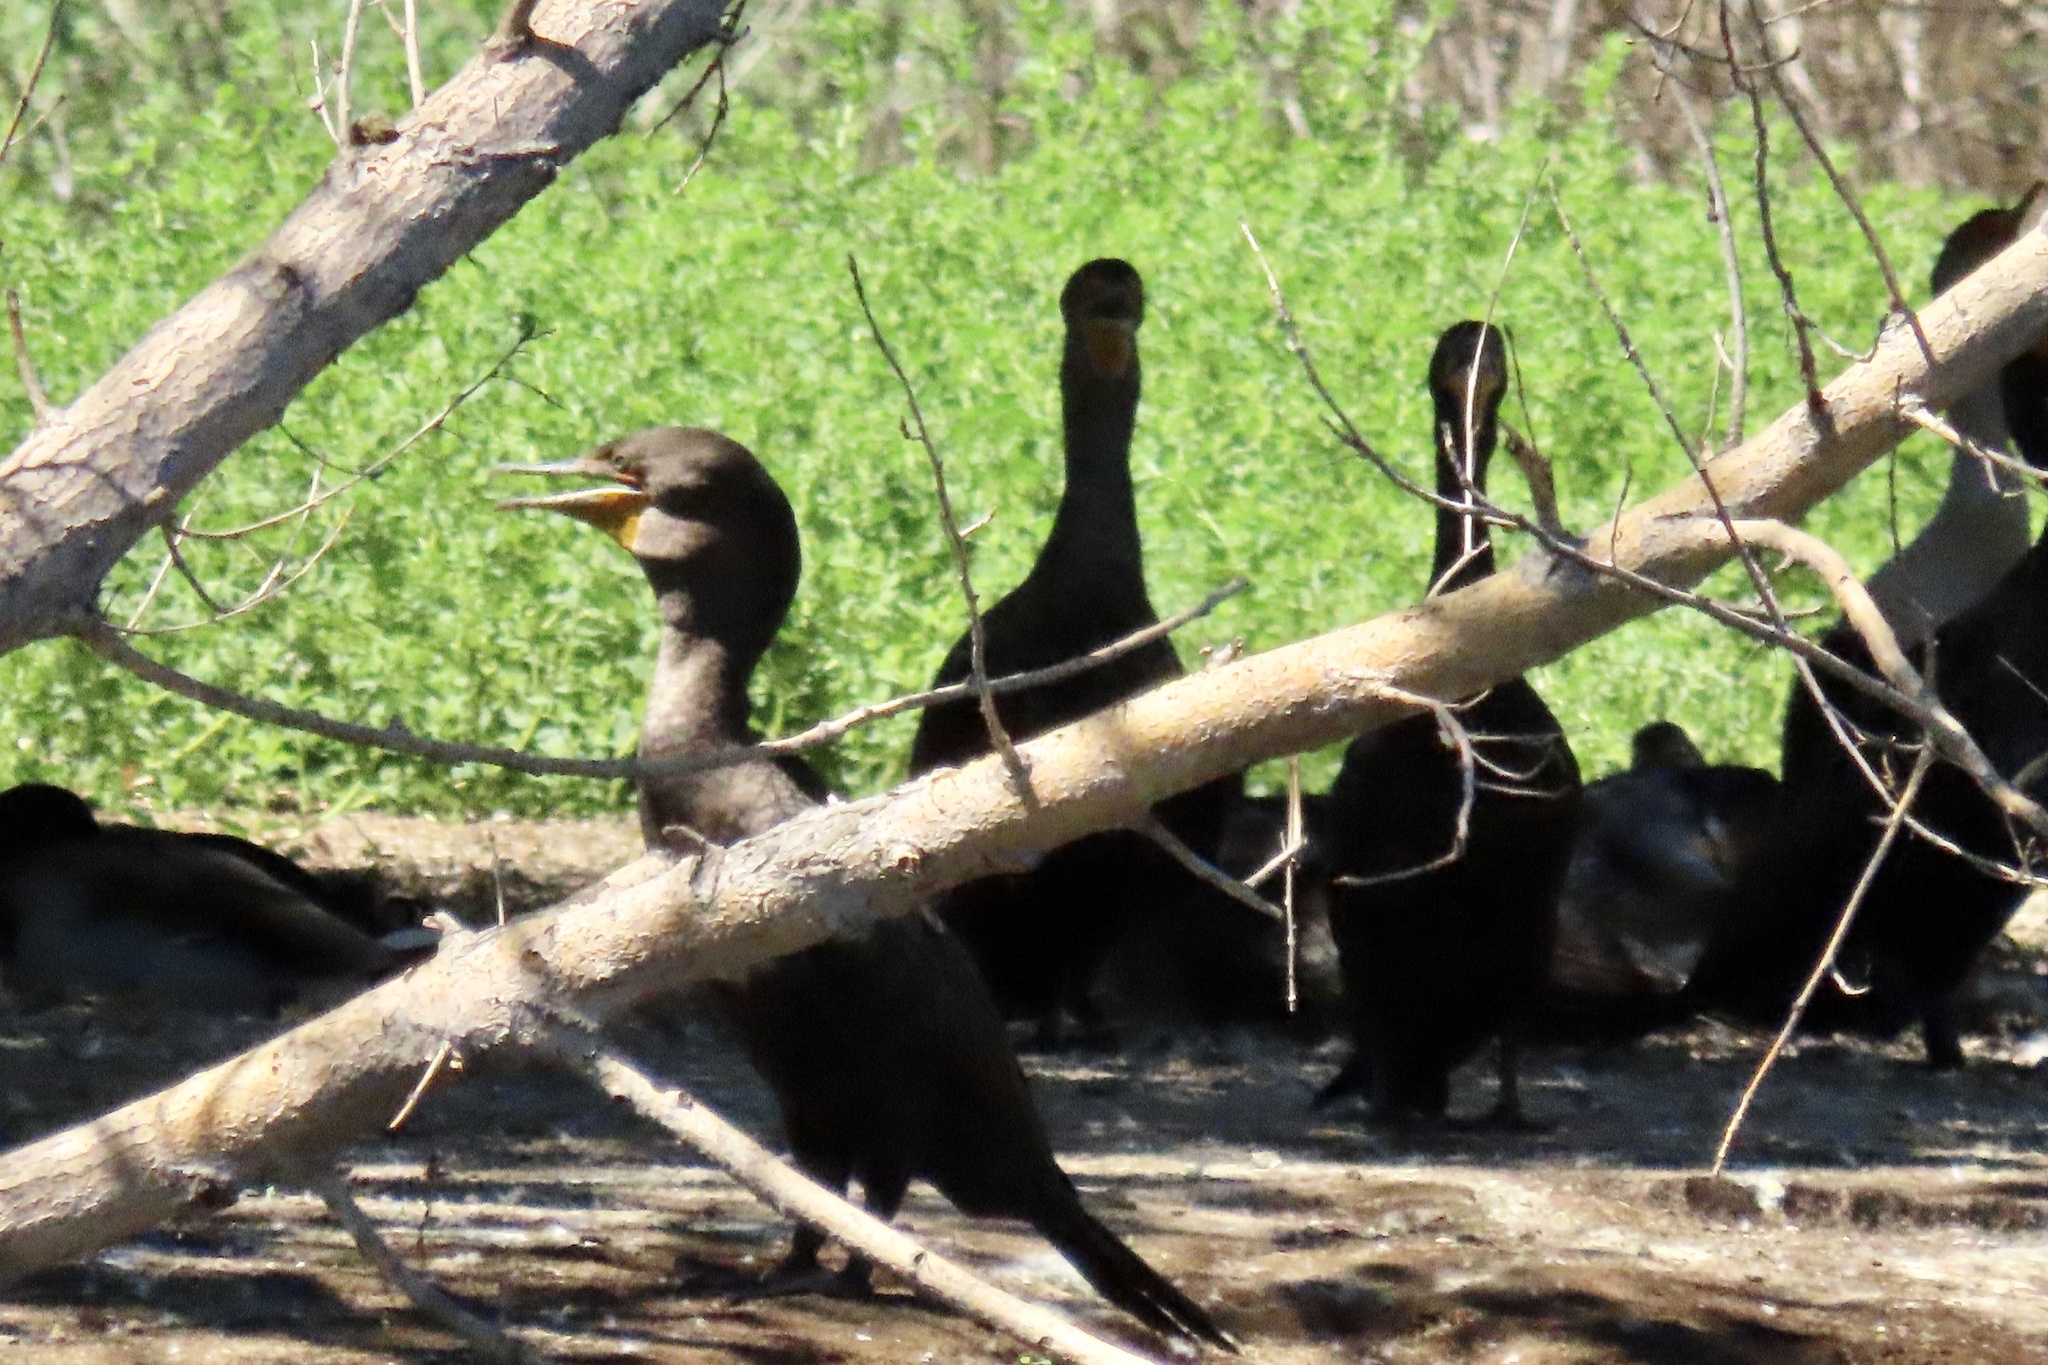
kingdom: Animalia
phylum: Chordata
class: Aves
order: Suliformes
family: Phalacrocoracidae
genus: Phalacrocorax
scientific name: Phalacrocorax auritus
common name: Double-crested cormorant
